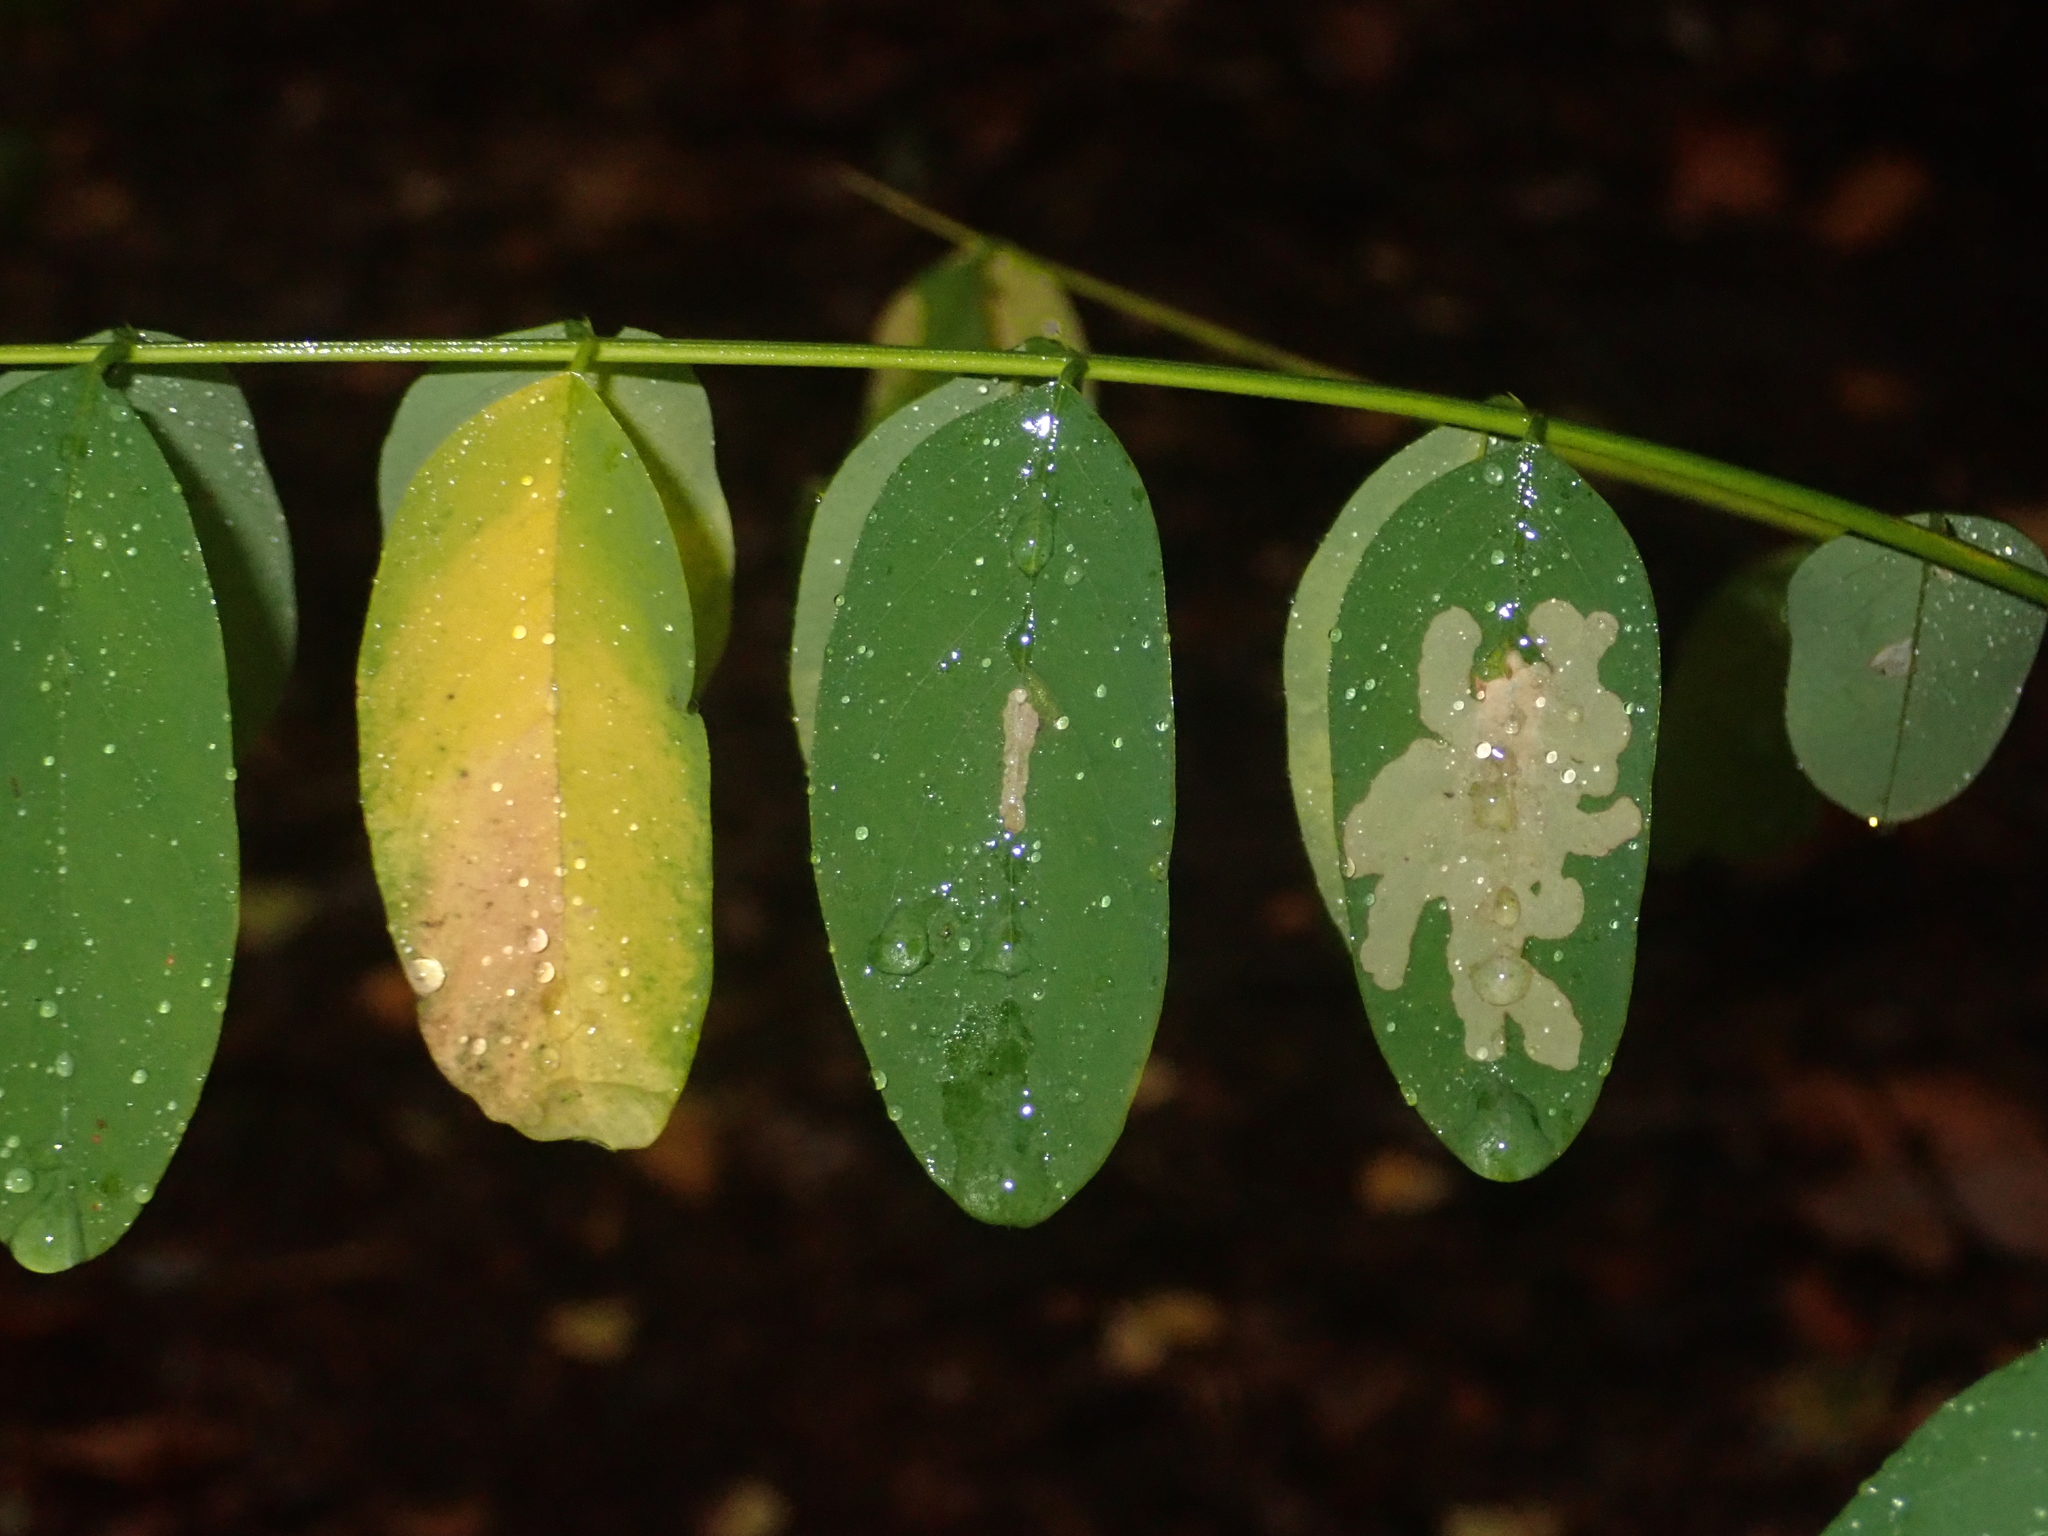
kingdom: Animalia
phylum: Arthropoda
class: Insecta
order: Lepidoptera
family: Gracillariidae
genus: Parectopa
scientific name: Parectopa robiniella
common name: Locust digitate leafminer
